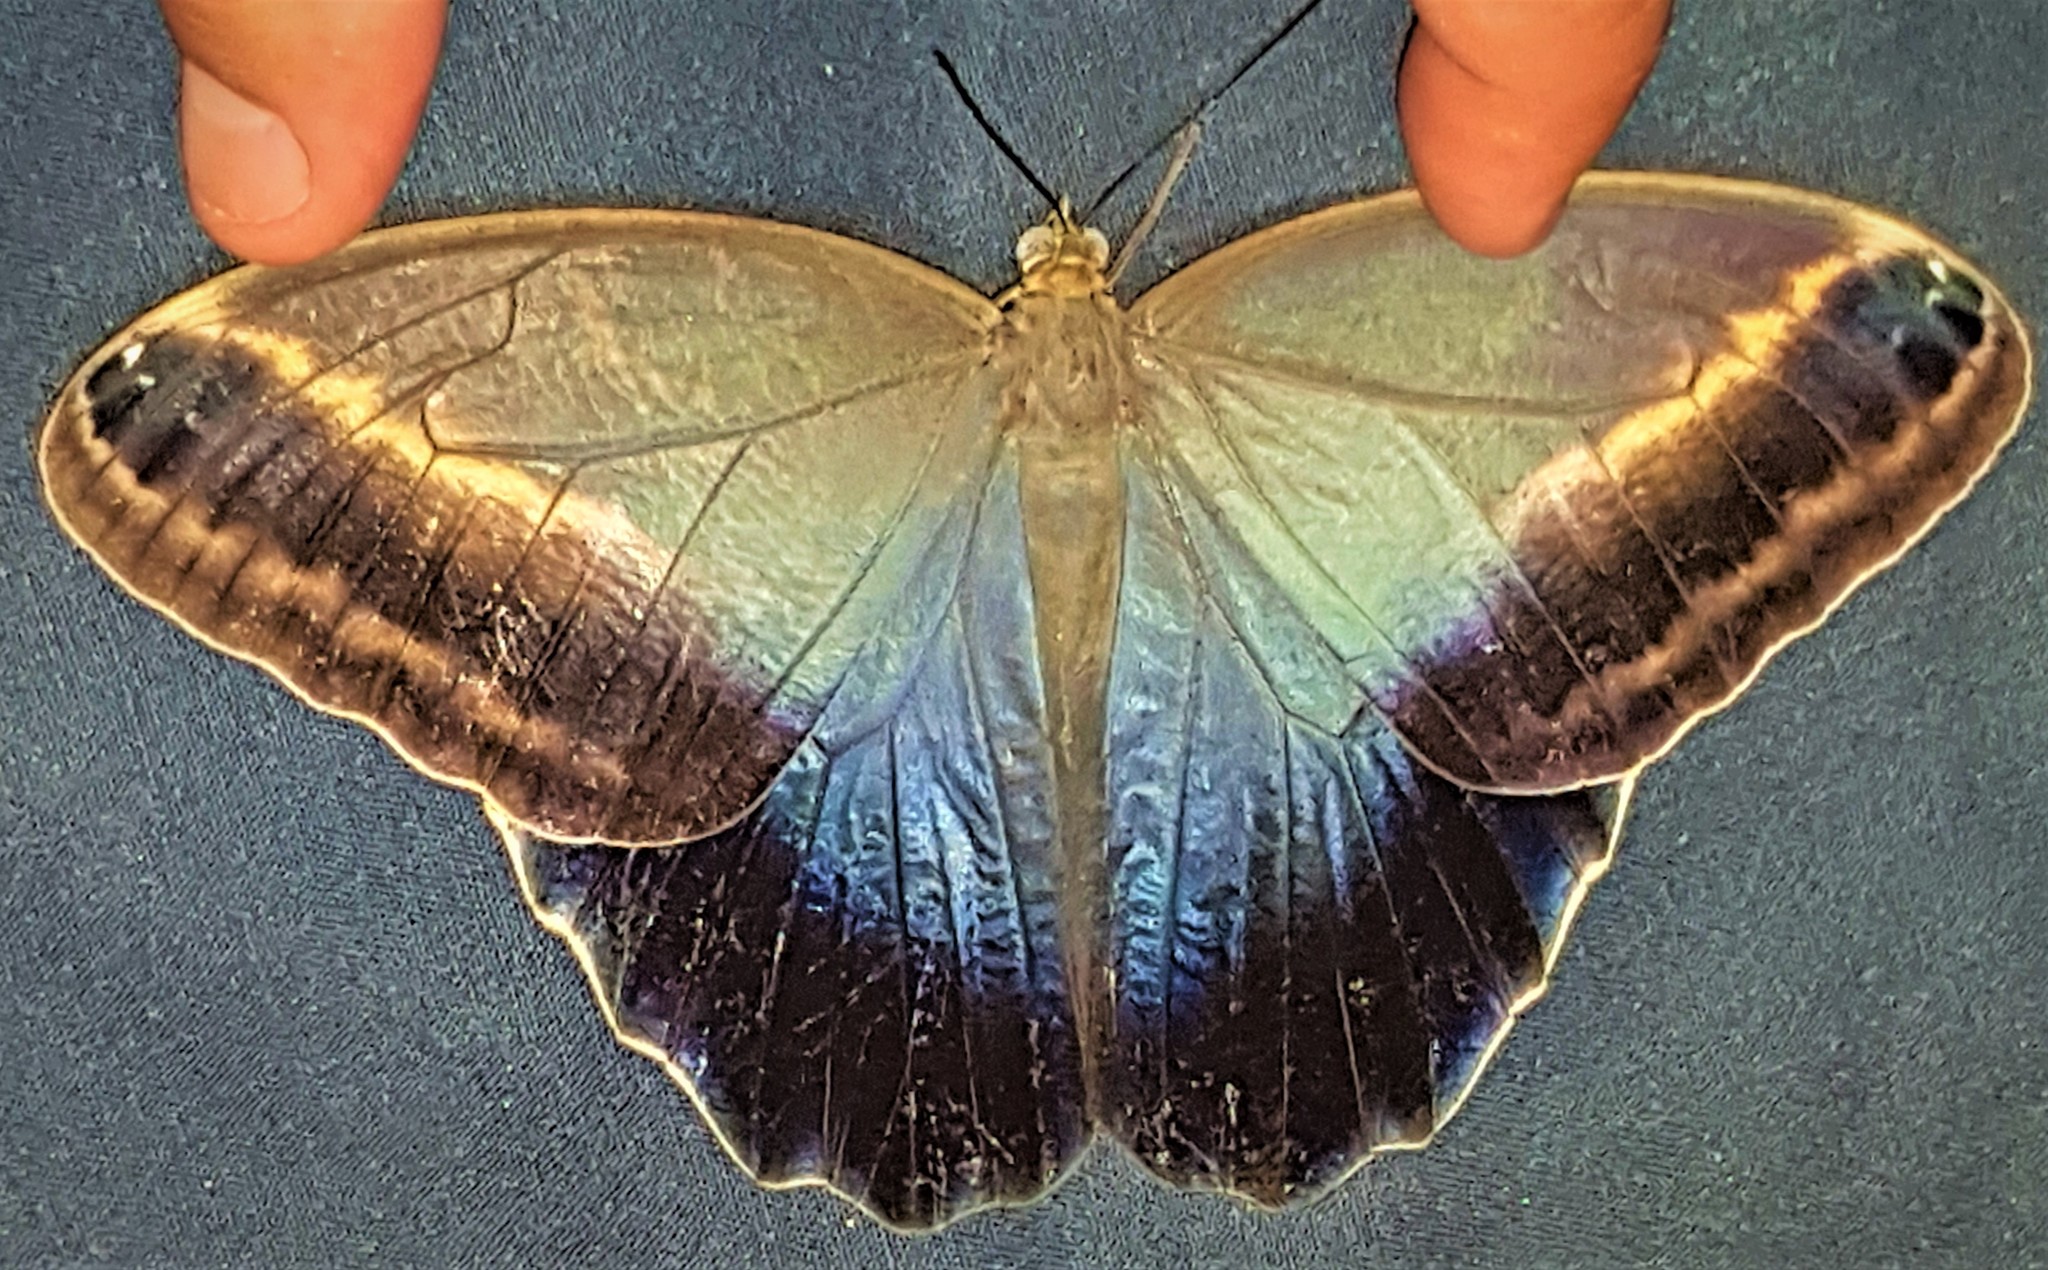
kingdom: Animalia
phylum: Arthropoda
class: Insecta
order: Lepidoptera
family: Nymphalidae
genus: Caligo
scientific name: Caligo illioneus
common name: Dusky owl-butterfly
